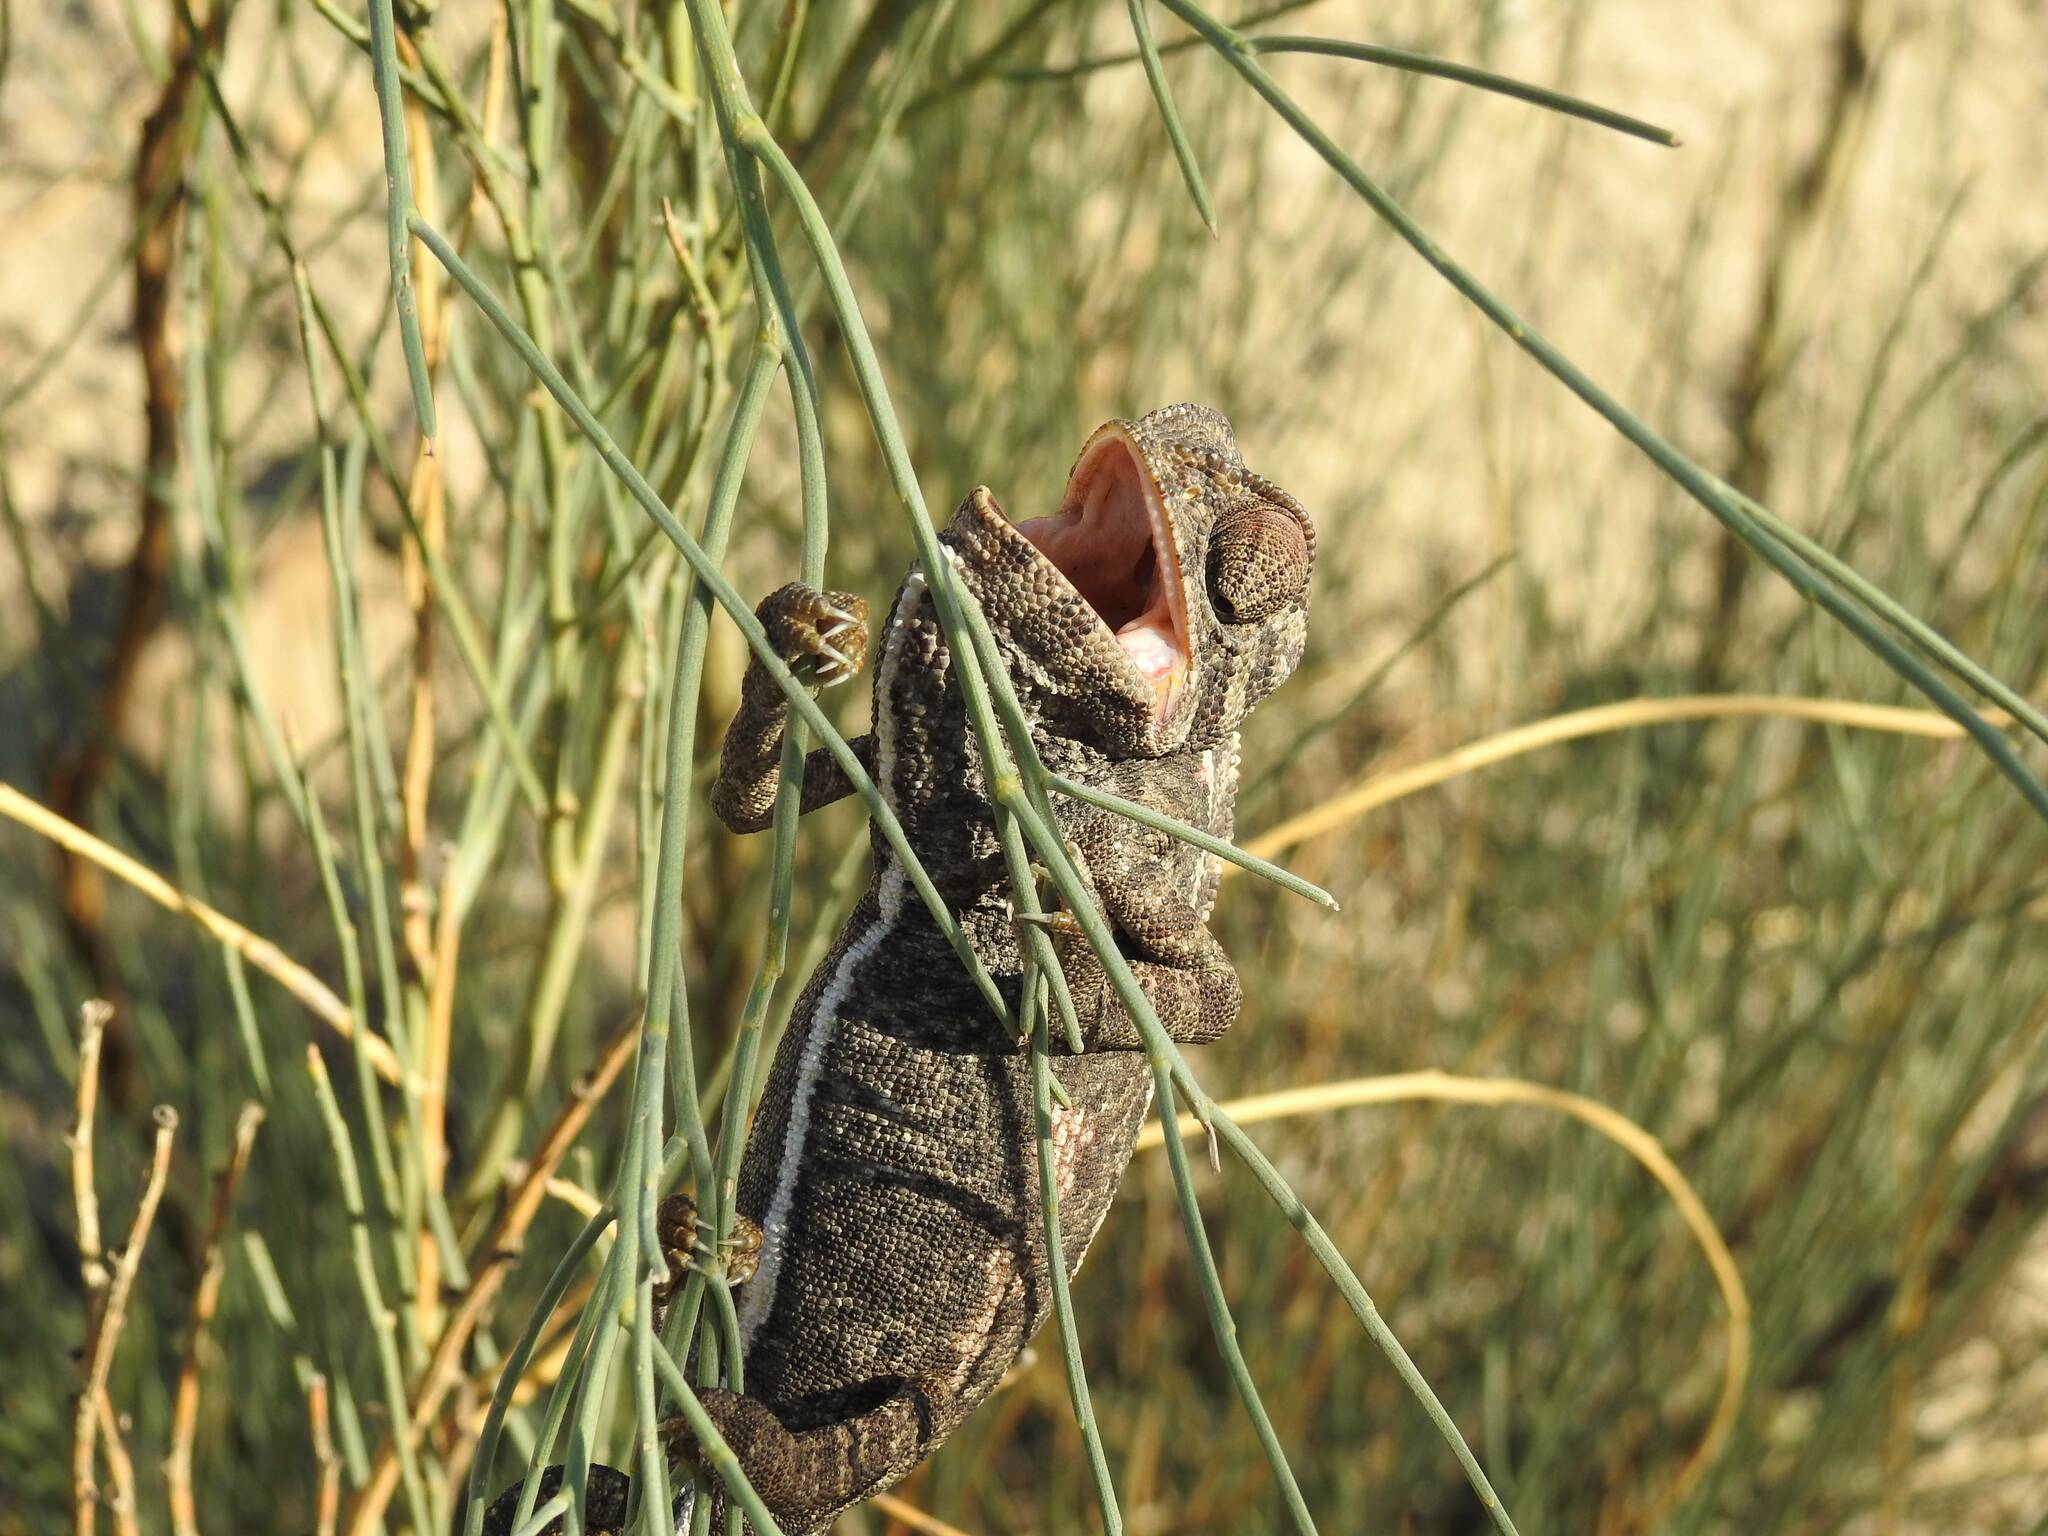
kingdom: Animalia
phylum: Chordata
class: Squamata
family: Chamaeleonidae
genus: Chamaeleo
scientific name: Chamaeleo chamaeleon
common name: Mediterranean chameleon
